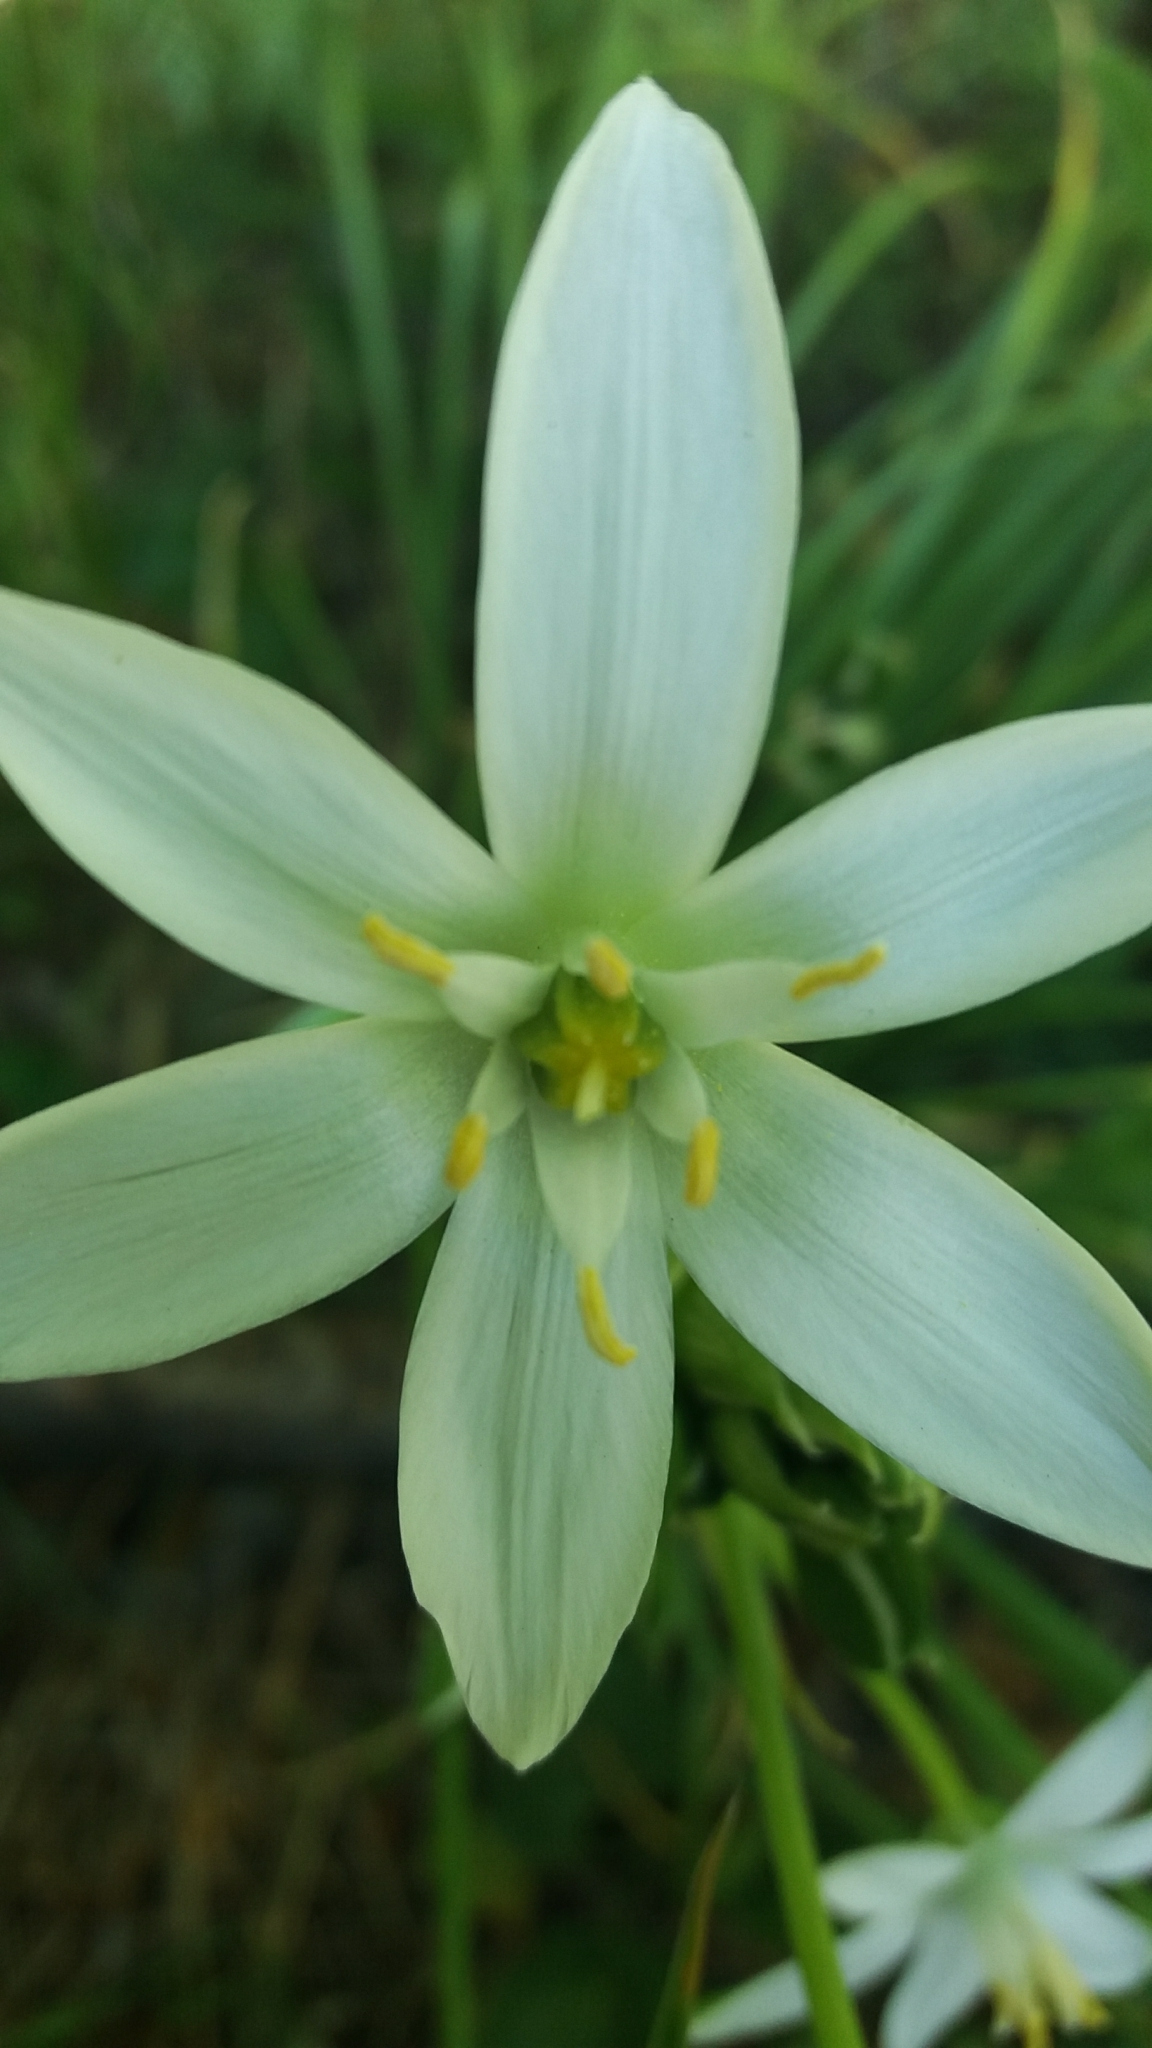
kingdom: Plantae
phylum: Tracheophyta
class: Liliopsida
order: Asparagales
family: Asparagaceae
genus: Ornithogalum
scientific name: Ornithogalum
